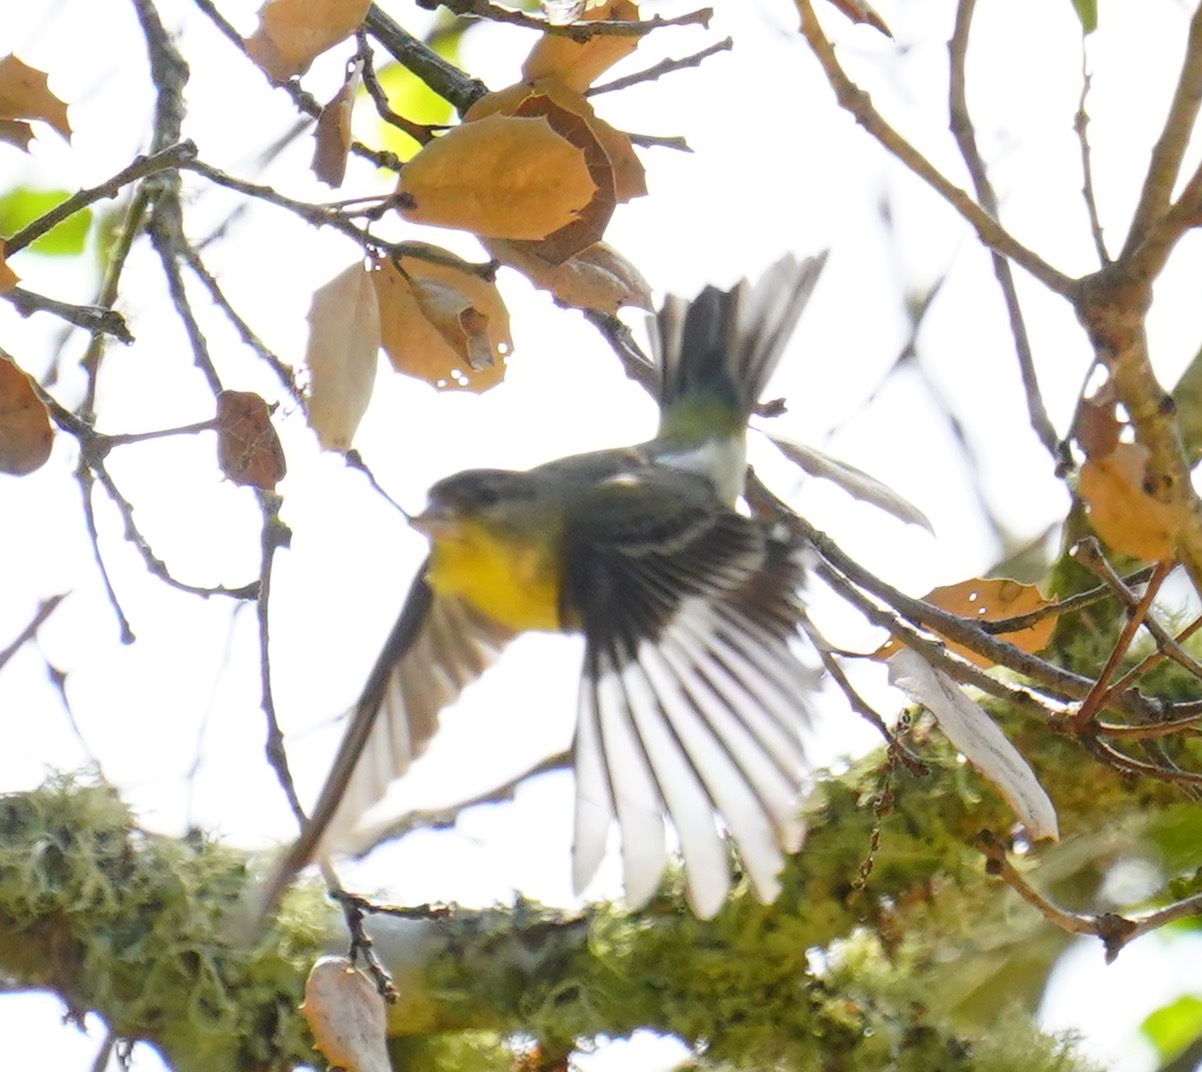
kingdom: Animalia
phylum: Chordata
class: Aves
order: Passeriformes
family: Fringillidae
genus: Spinus
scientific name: Spinus psaltria
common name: Lesser goldfinch
